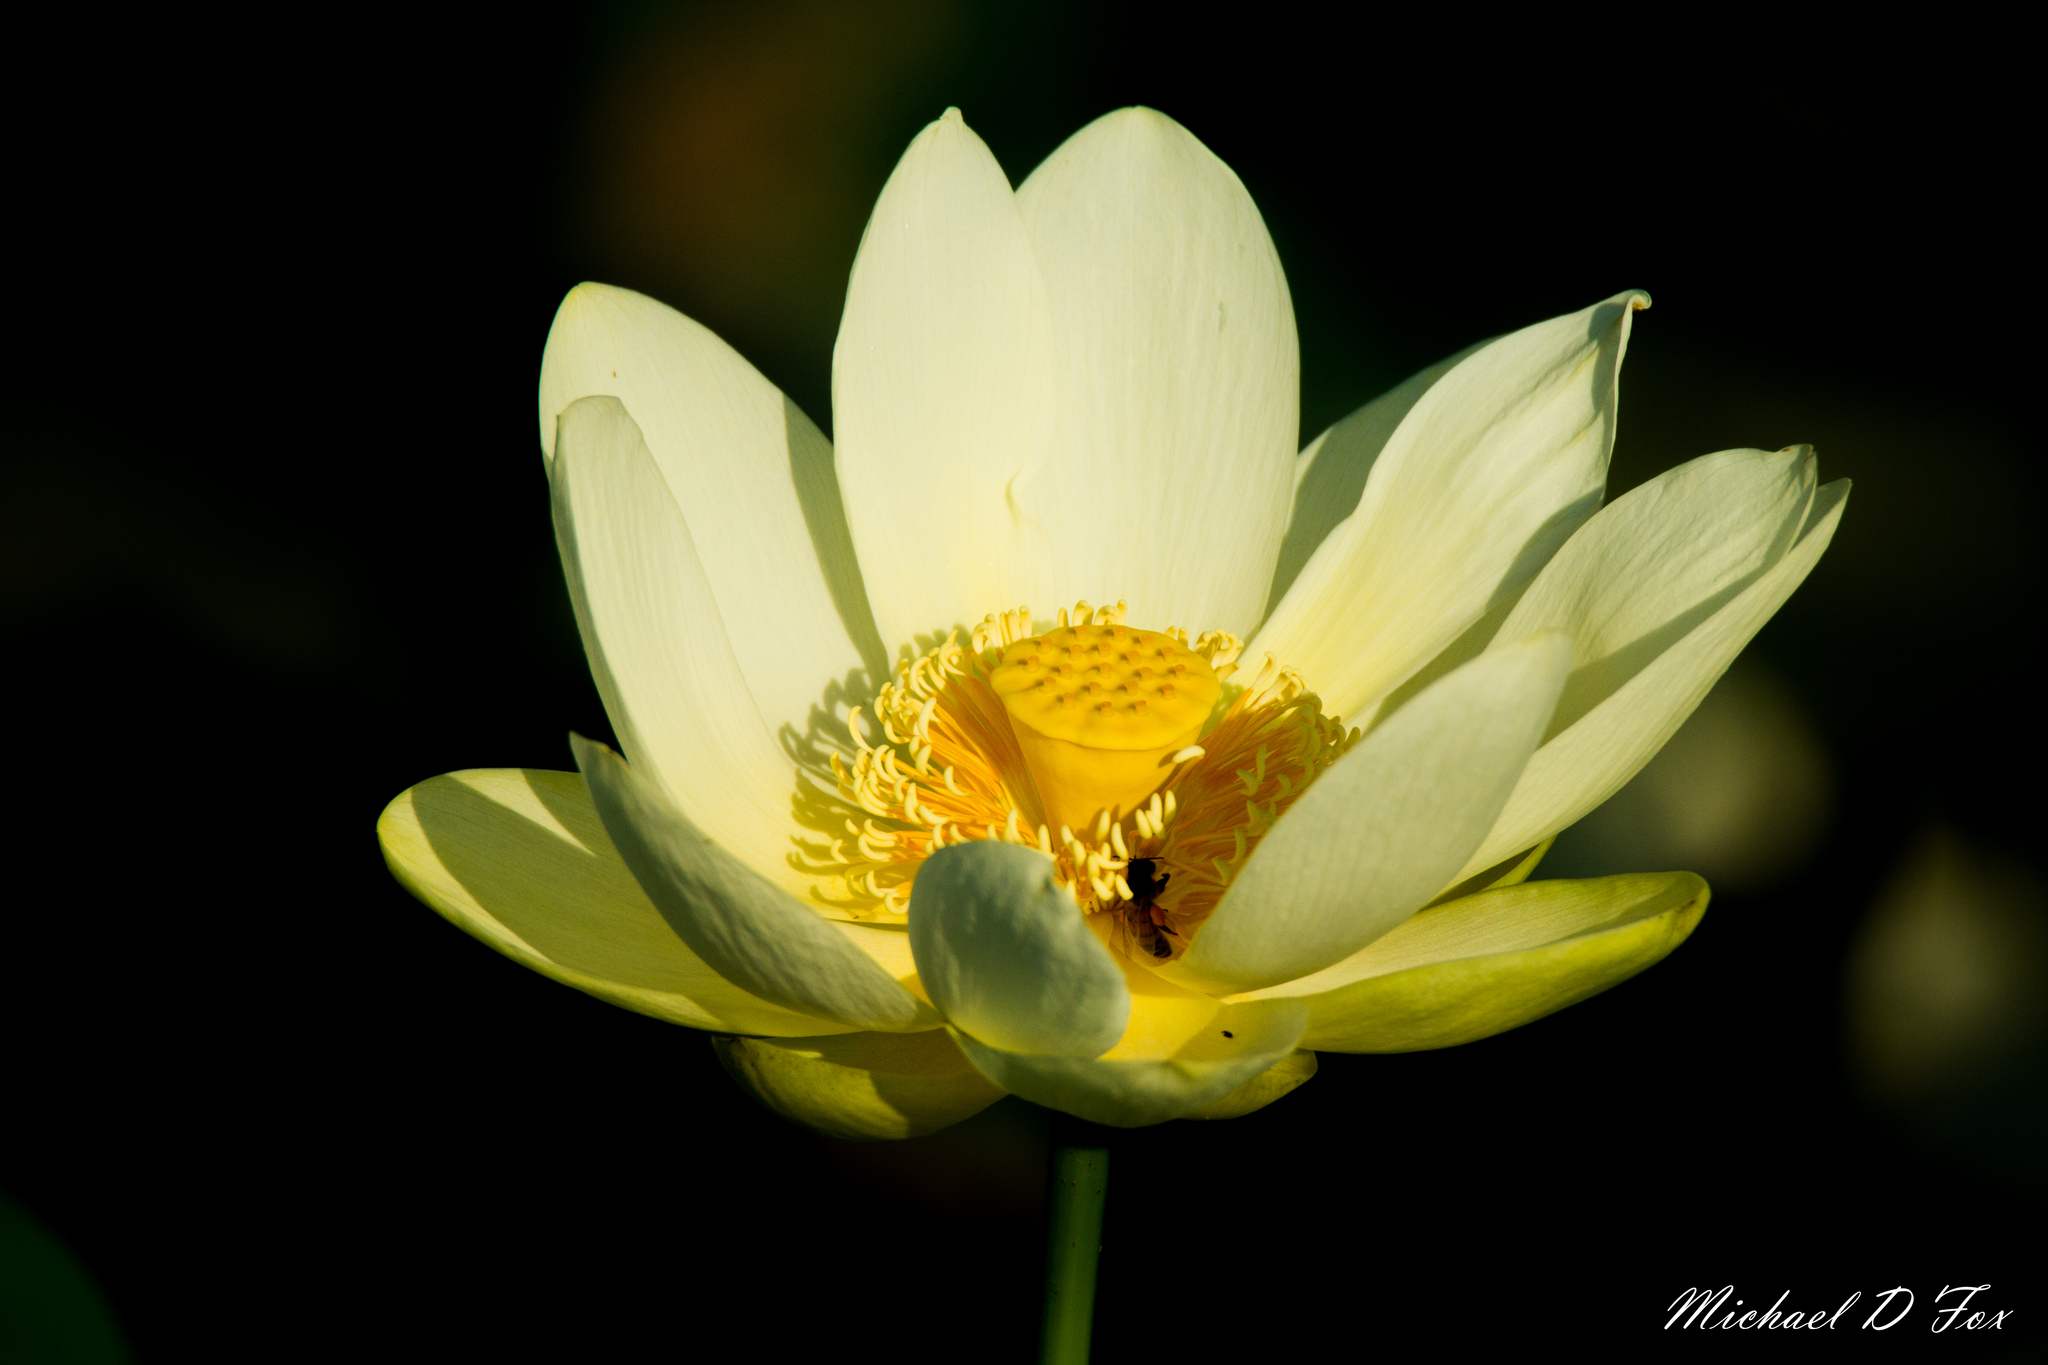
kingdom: Plantae
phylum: Tracheophyta
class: Magnoliopsida
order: Proteales
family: Nelumbonaceae
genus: Nelumbo
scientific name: Nelumbo lutea
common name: American lotus
